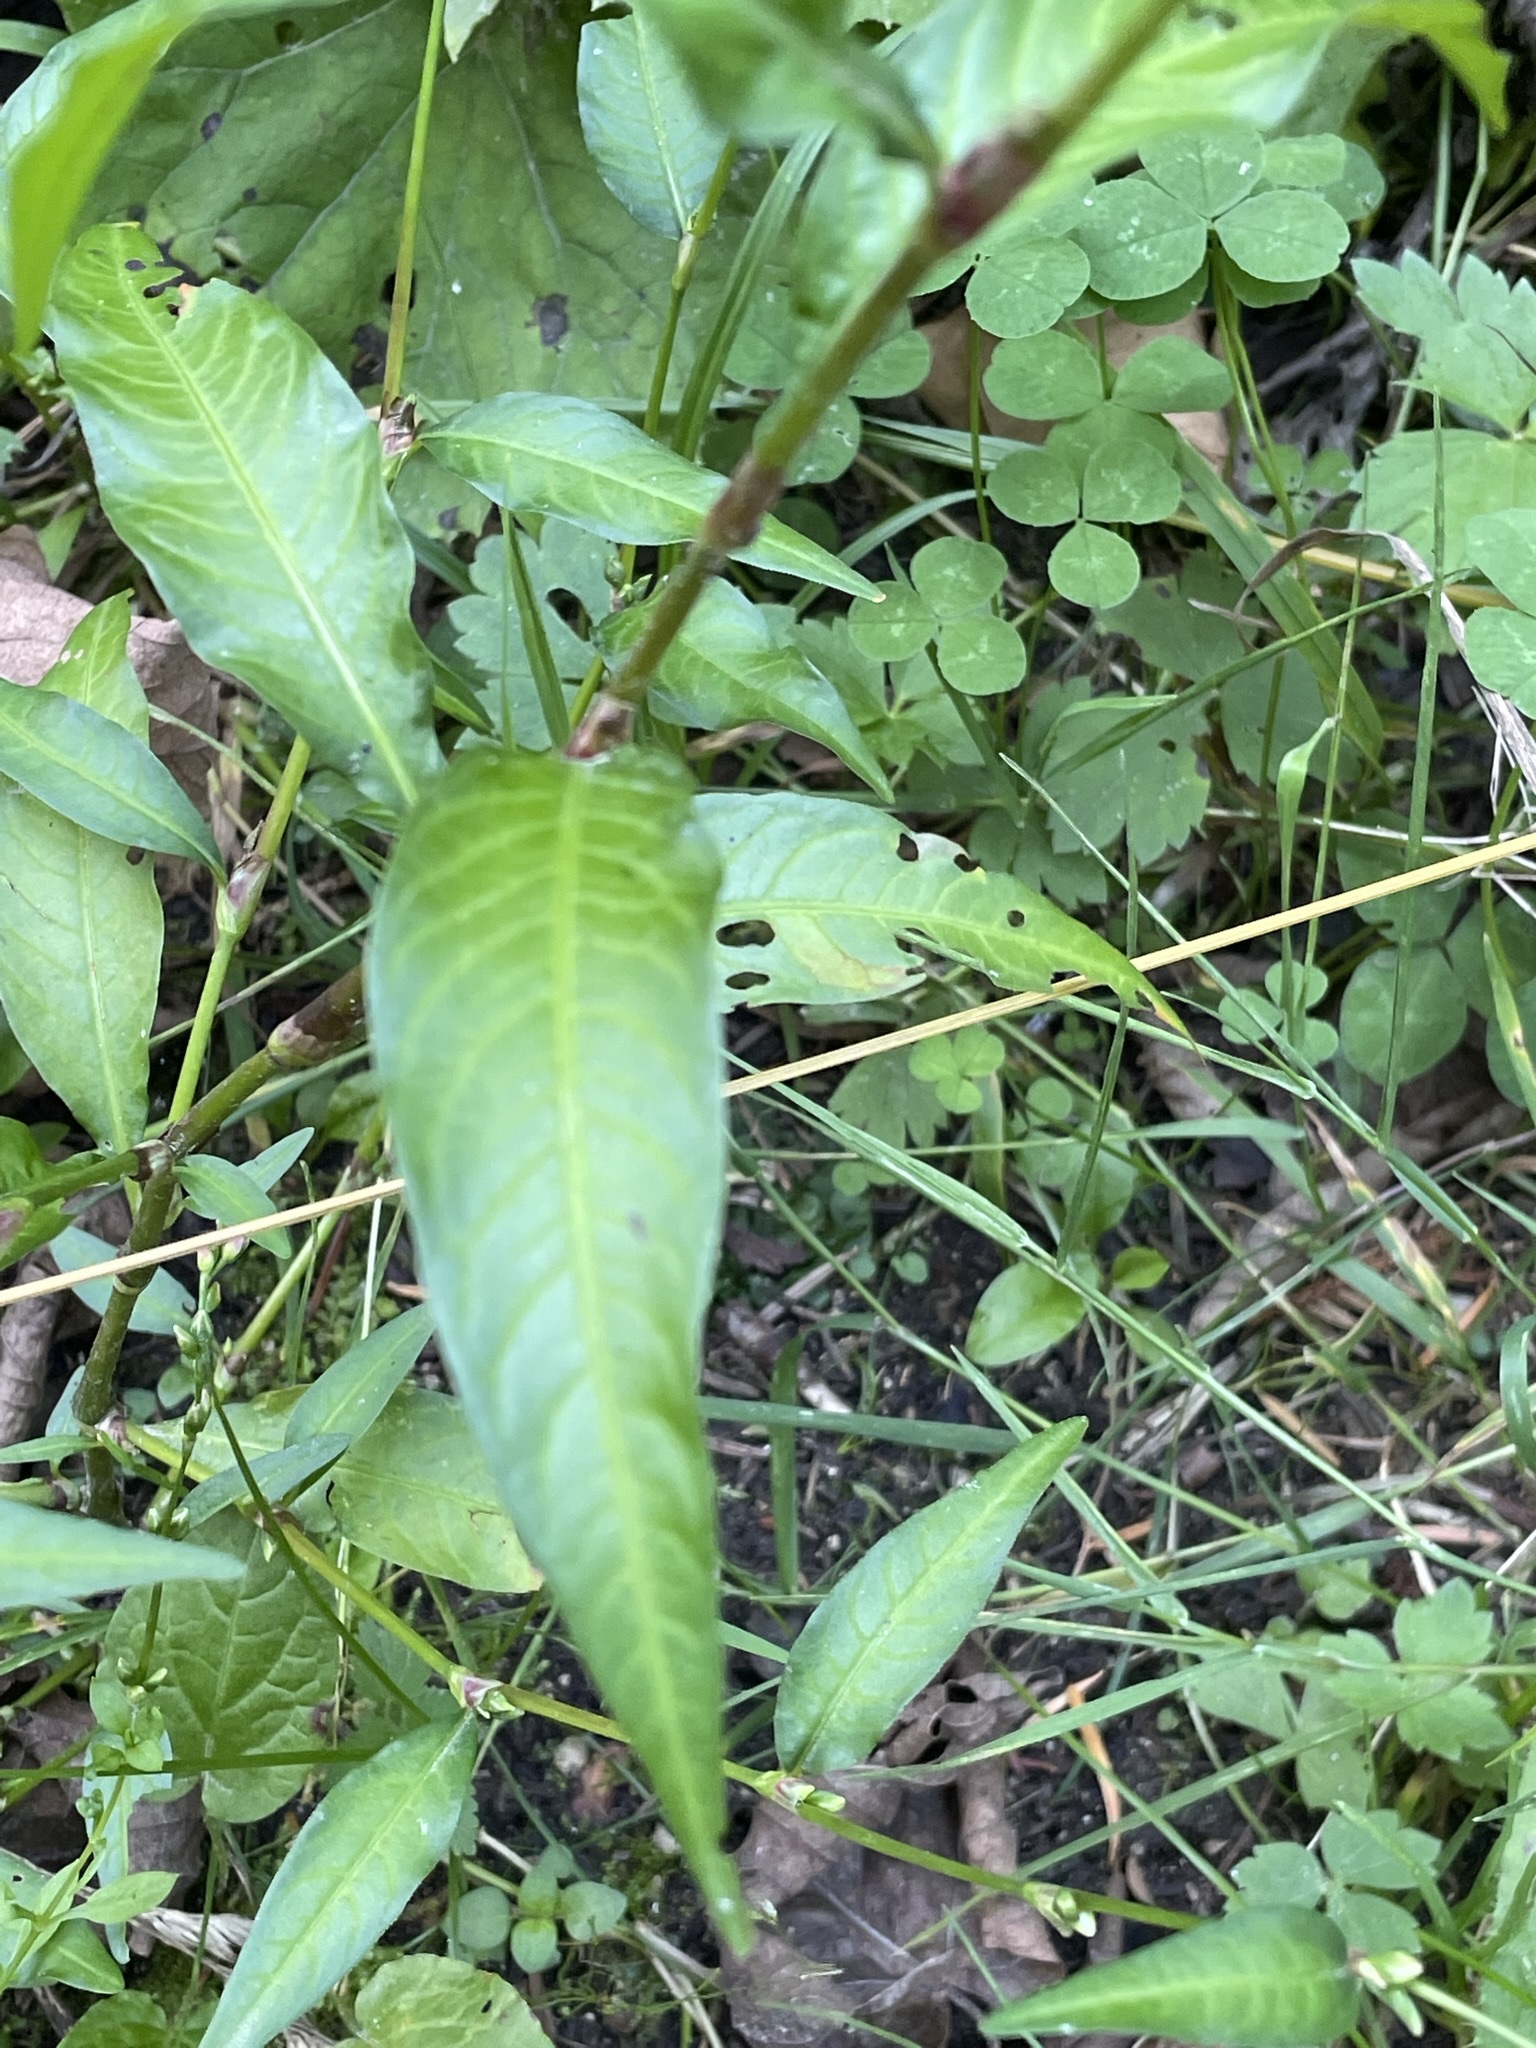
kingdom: Plantae
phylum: Tracheophyta
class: Magnoliopsida
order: Caryophyllales
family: Polygonaceae
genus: Persicaria
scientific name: Persicaria hydropiper
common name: Water-pepper
